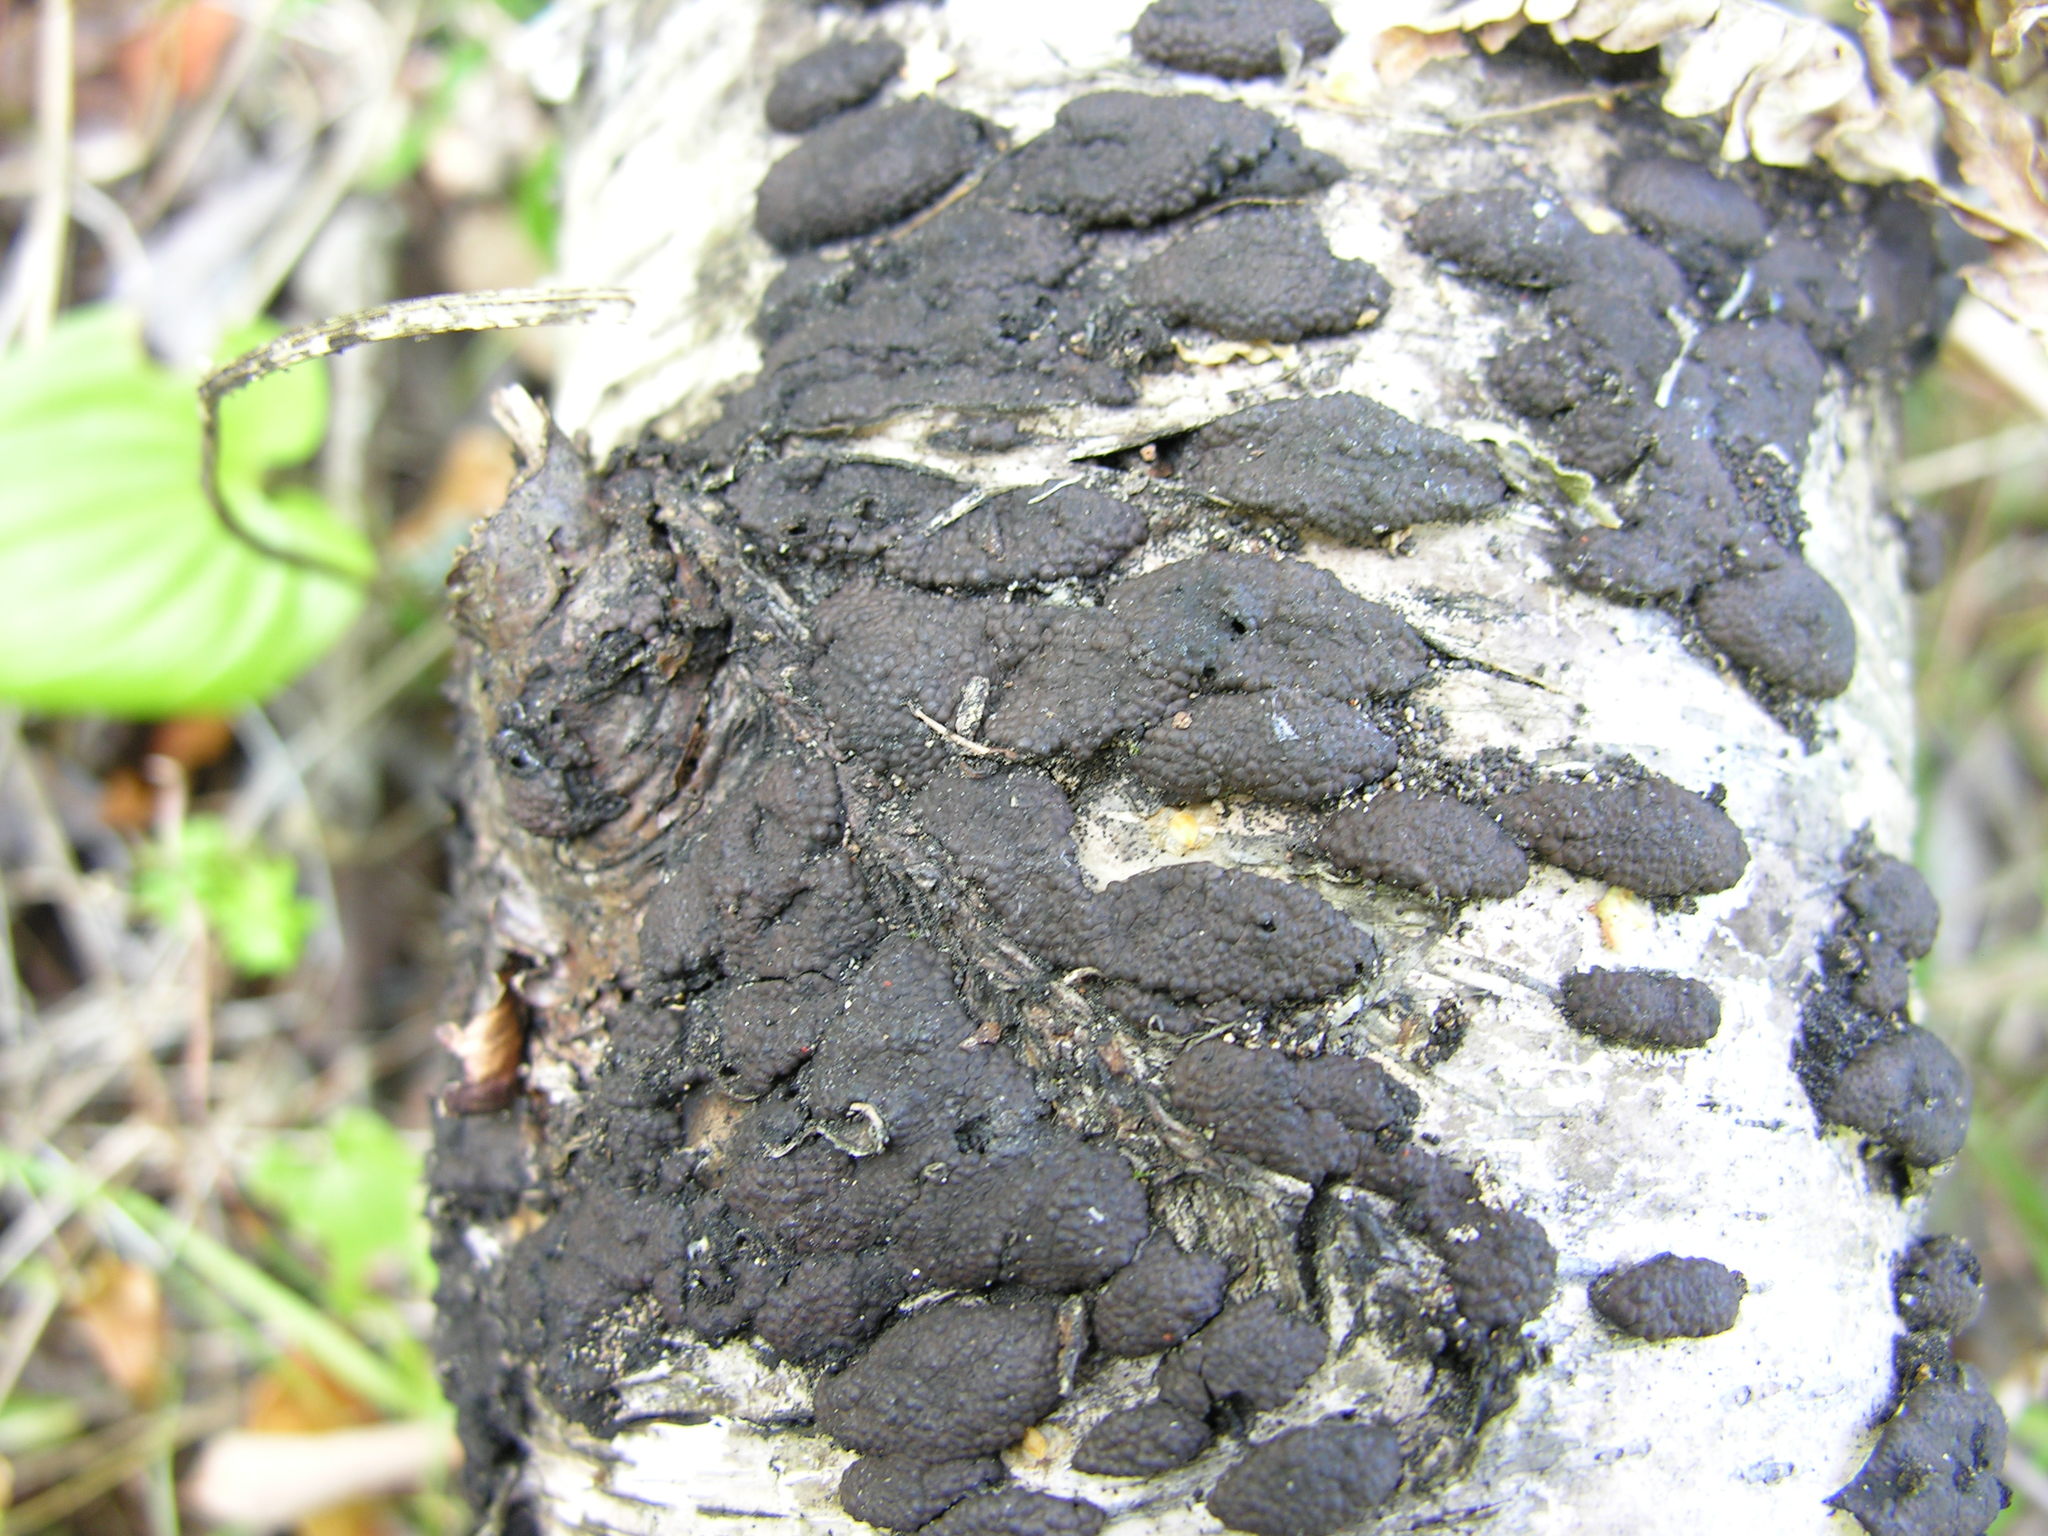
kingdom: Fungi
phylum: Ascomycota
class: Sordariomycetes
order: Xylariales
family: Hypoxylaceae
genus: Jackrogersella
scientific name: Jackrogersella multiformis
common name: Birch woodwart
